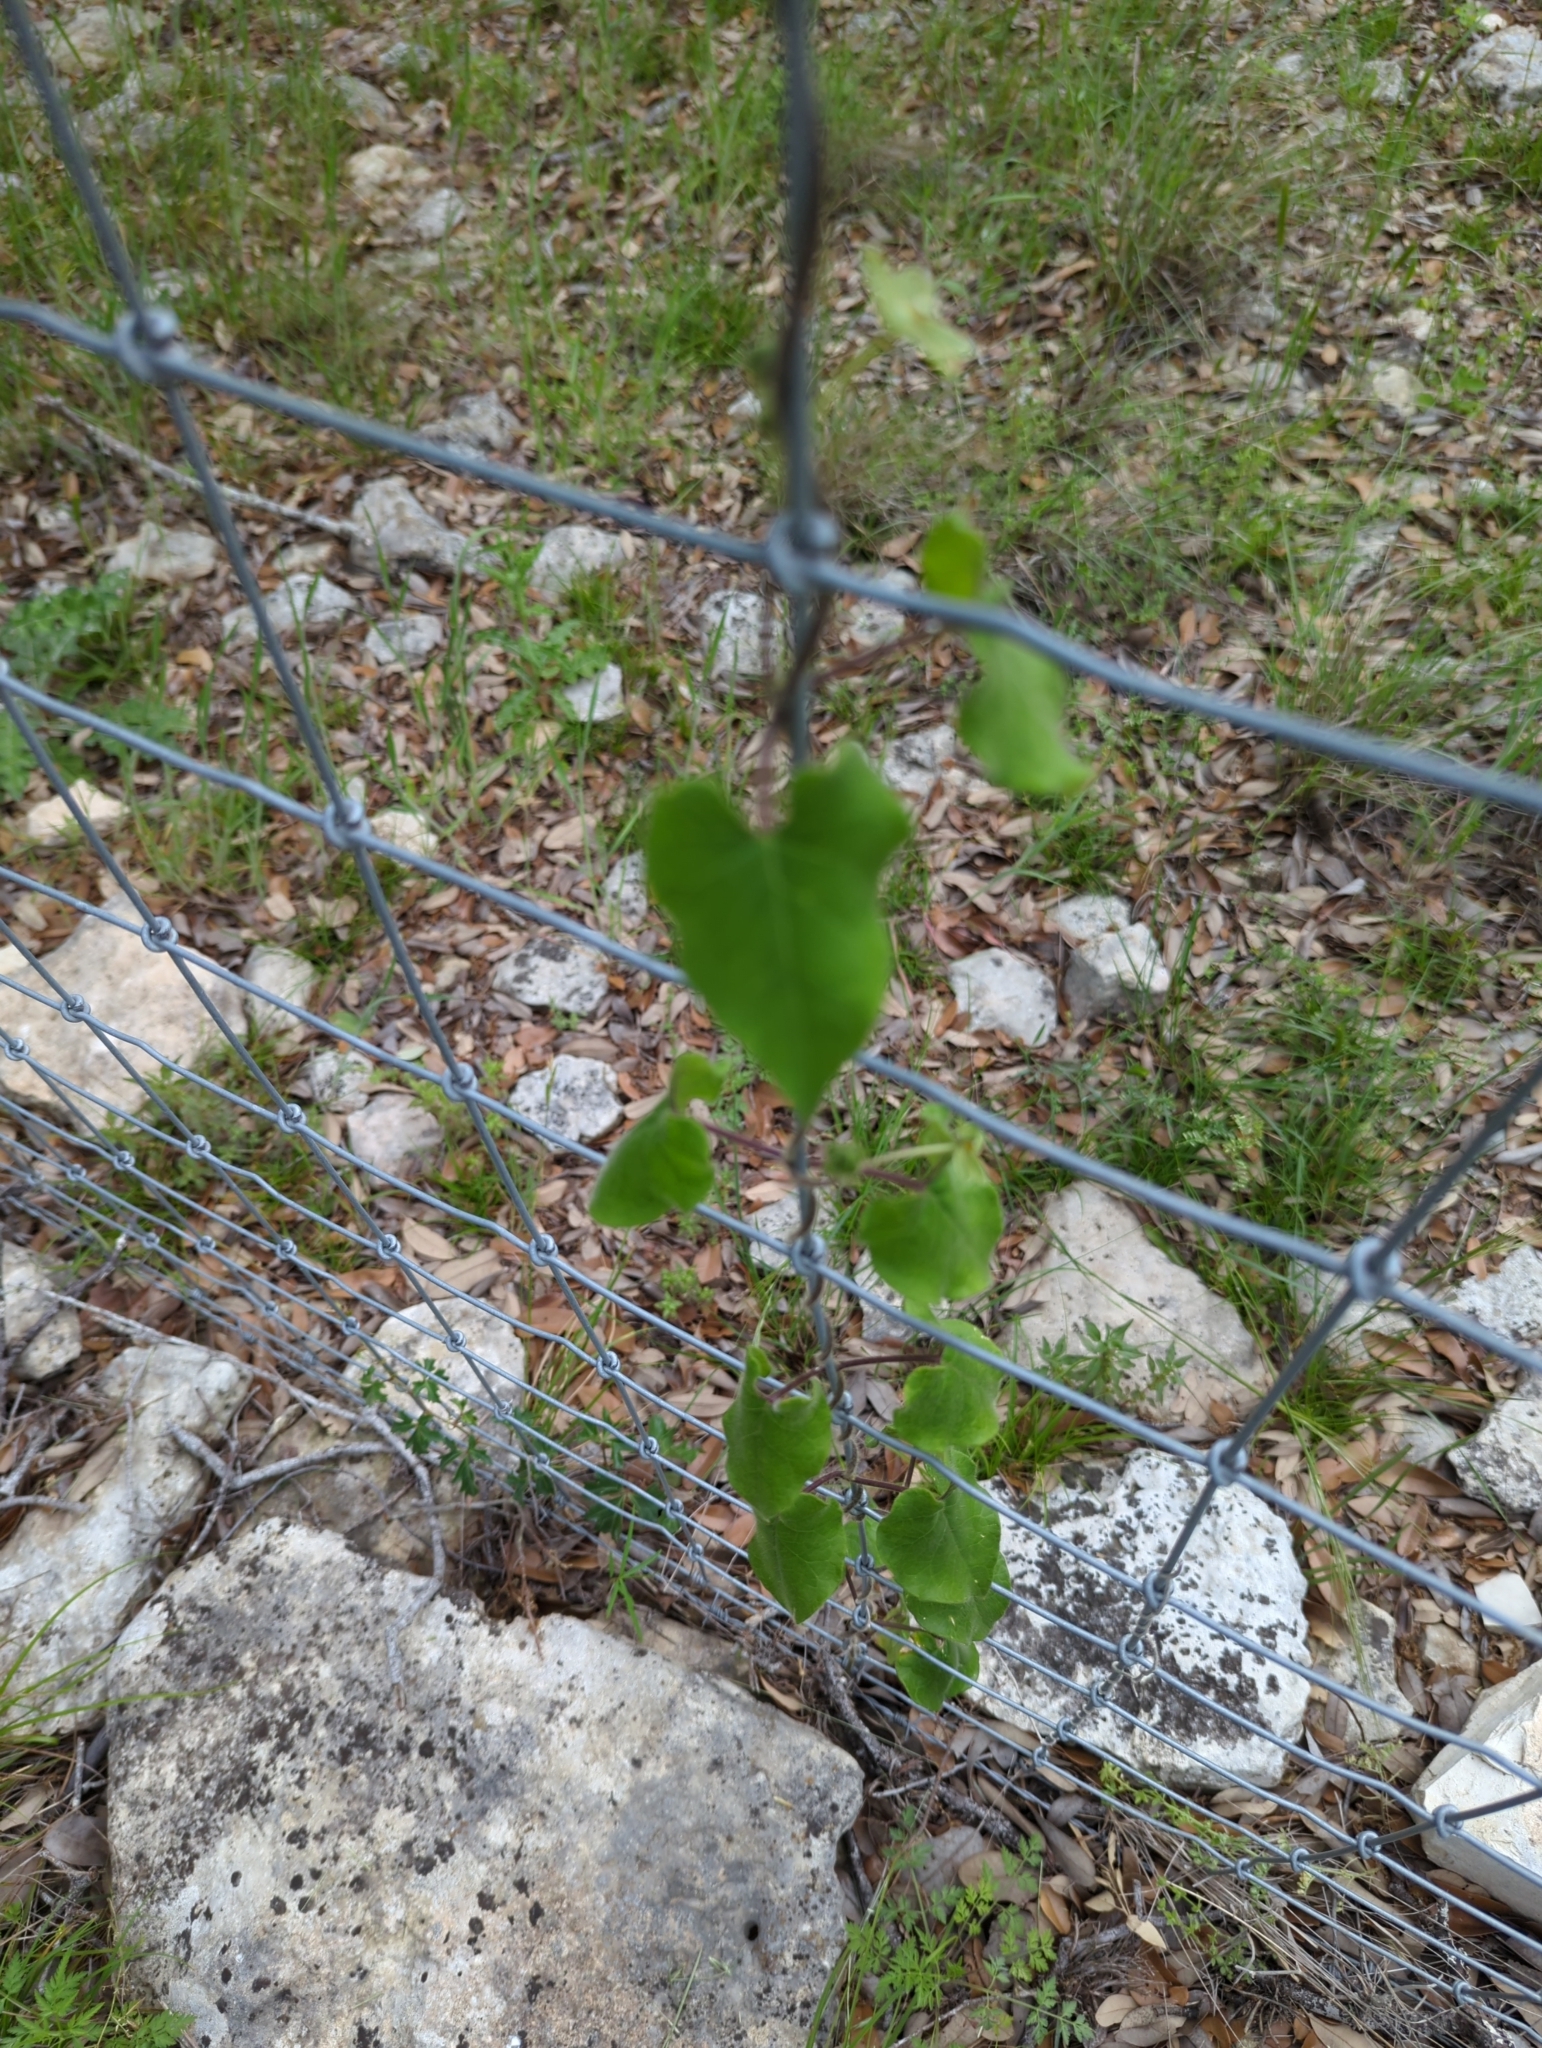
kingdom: Plantae
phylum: Tracheophyta
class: Magnoliopsida
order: Gentianales
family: Apocynaceae
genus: Dictyanthus
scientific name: Dictyanthus reticulatus
